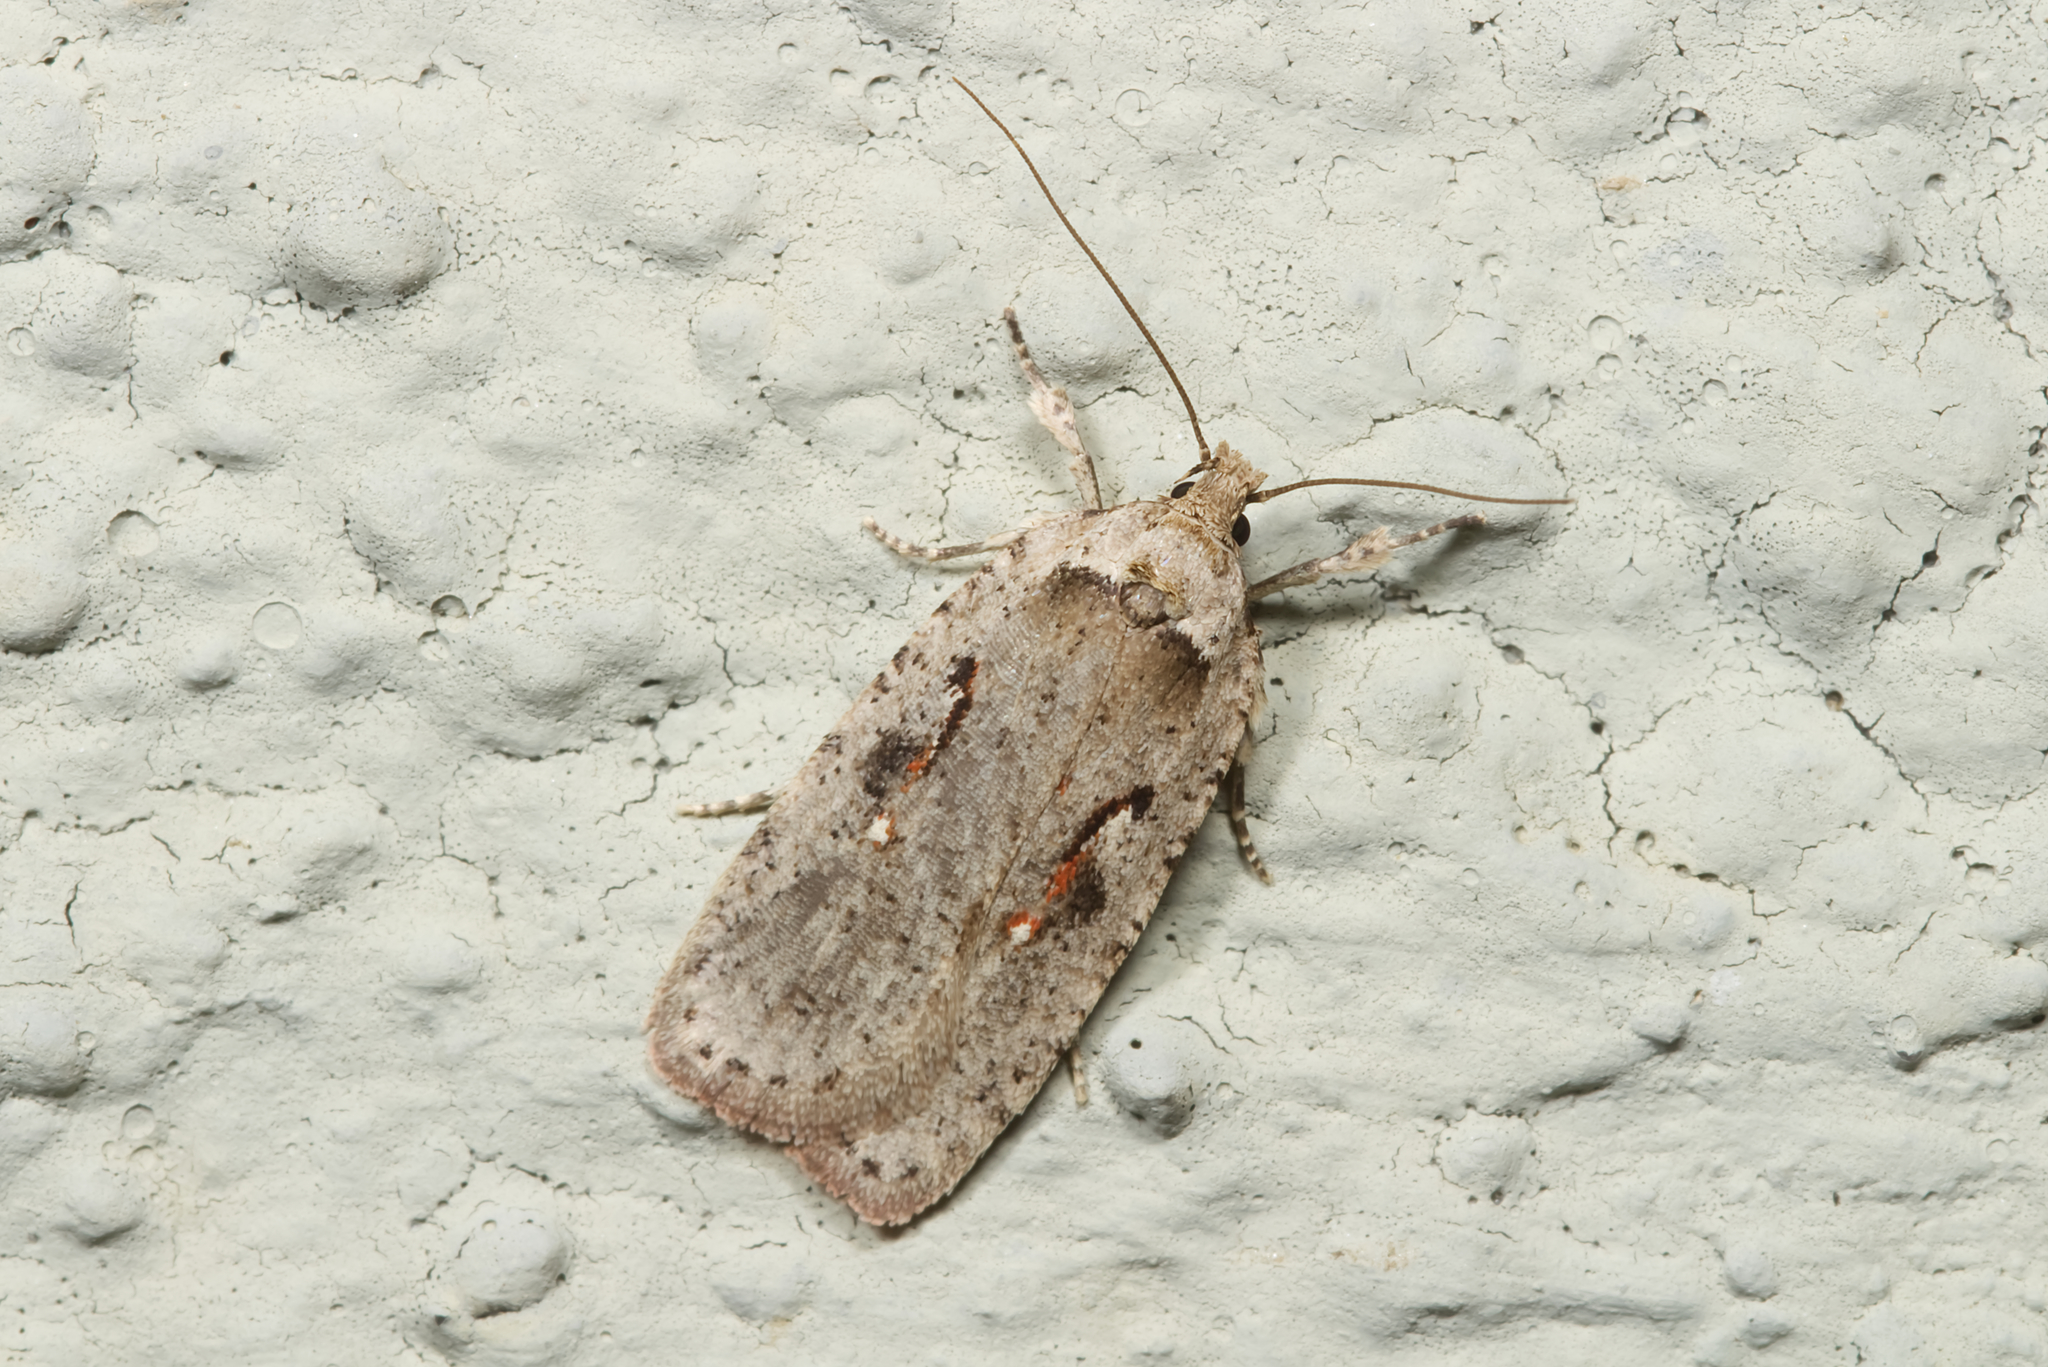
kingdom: Animalia
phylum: Arthropoda
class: Insecta
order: Lepidoptera
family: Depressariidae
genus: Agonopterix
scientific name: Agonopterix ocellana
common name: Red-letter flat-body
